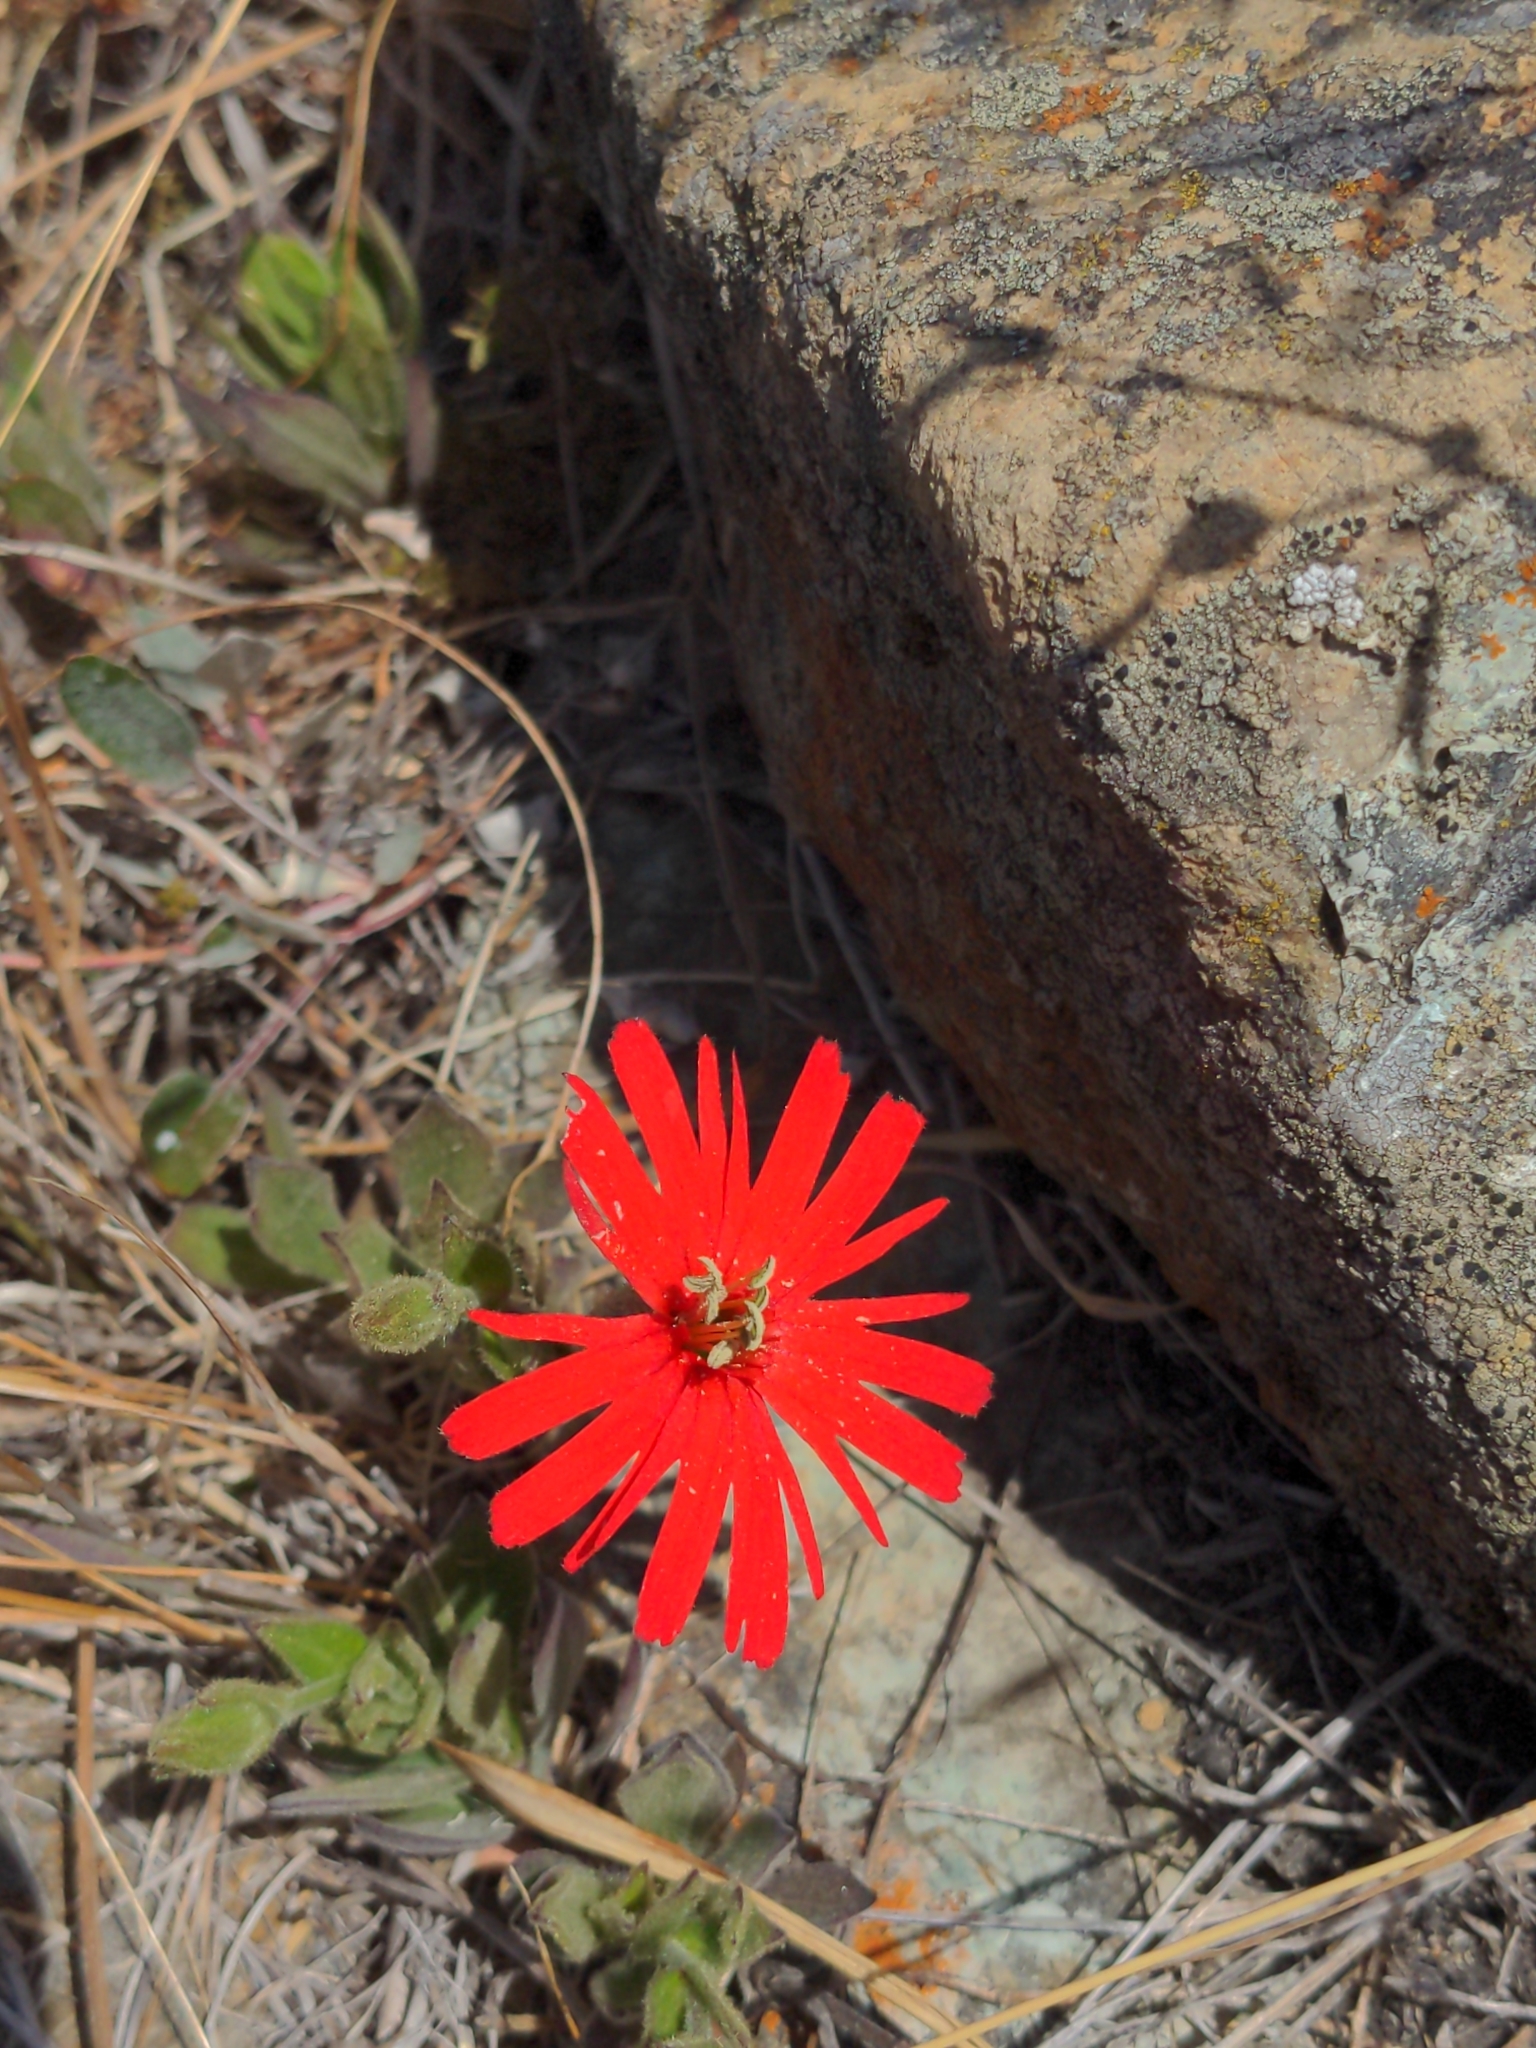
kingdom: Plantae
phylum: Tracheophyta
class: Magnoliopsida
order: Caryophyllales
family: Caryophyllaceae
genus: Silene
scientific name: Silene laciniata
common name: Indian-pink
